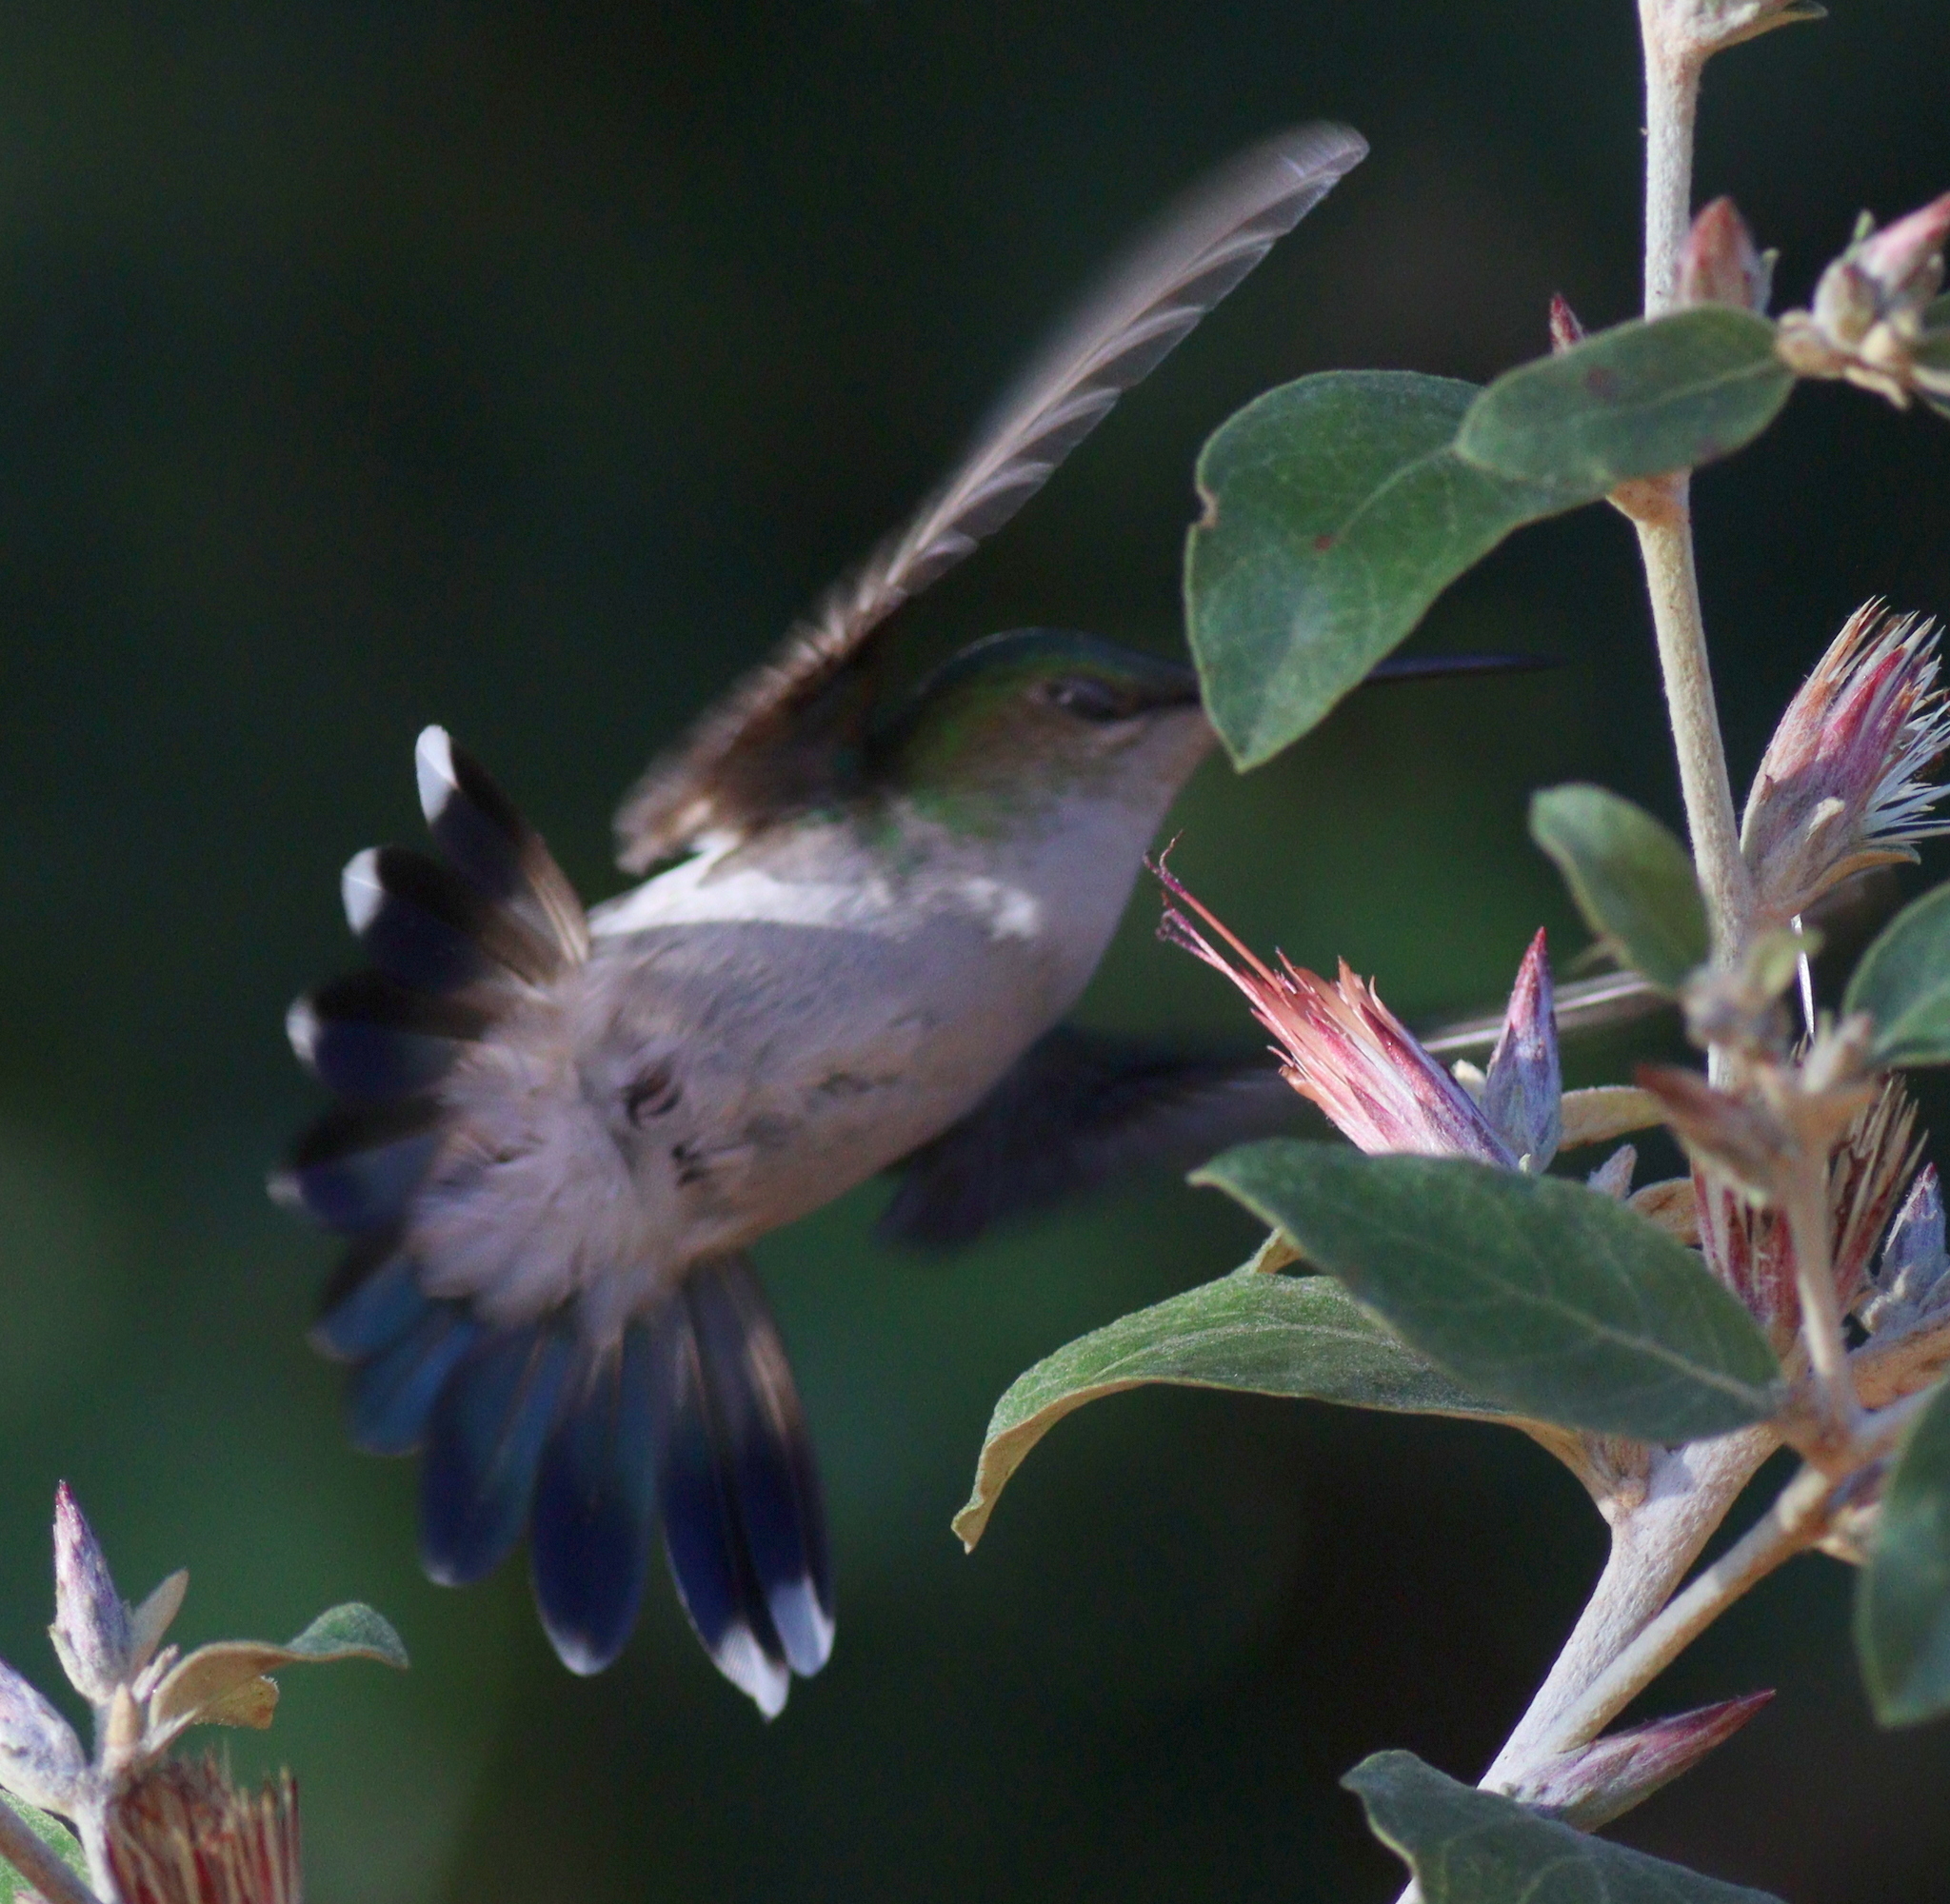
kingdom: Animalia
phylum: Chordata
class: Aves
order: Apodiformes
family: Trochilidae
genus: Thalurania
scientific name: Thalurania furcata
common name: Fork-tailed woodnymph
